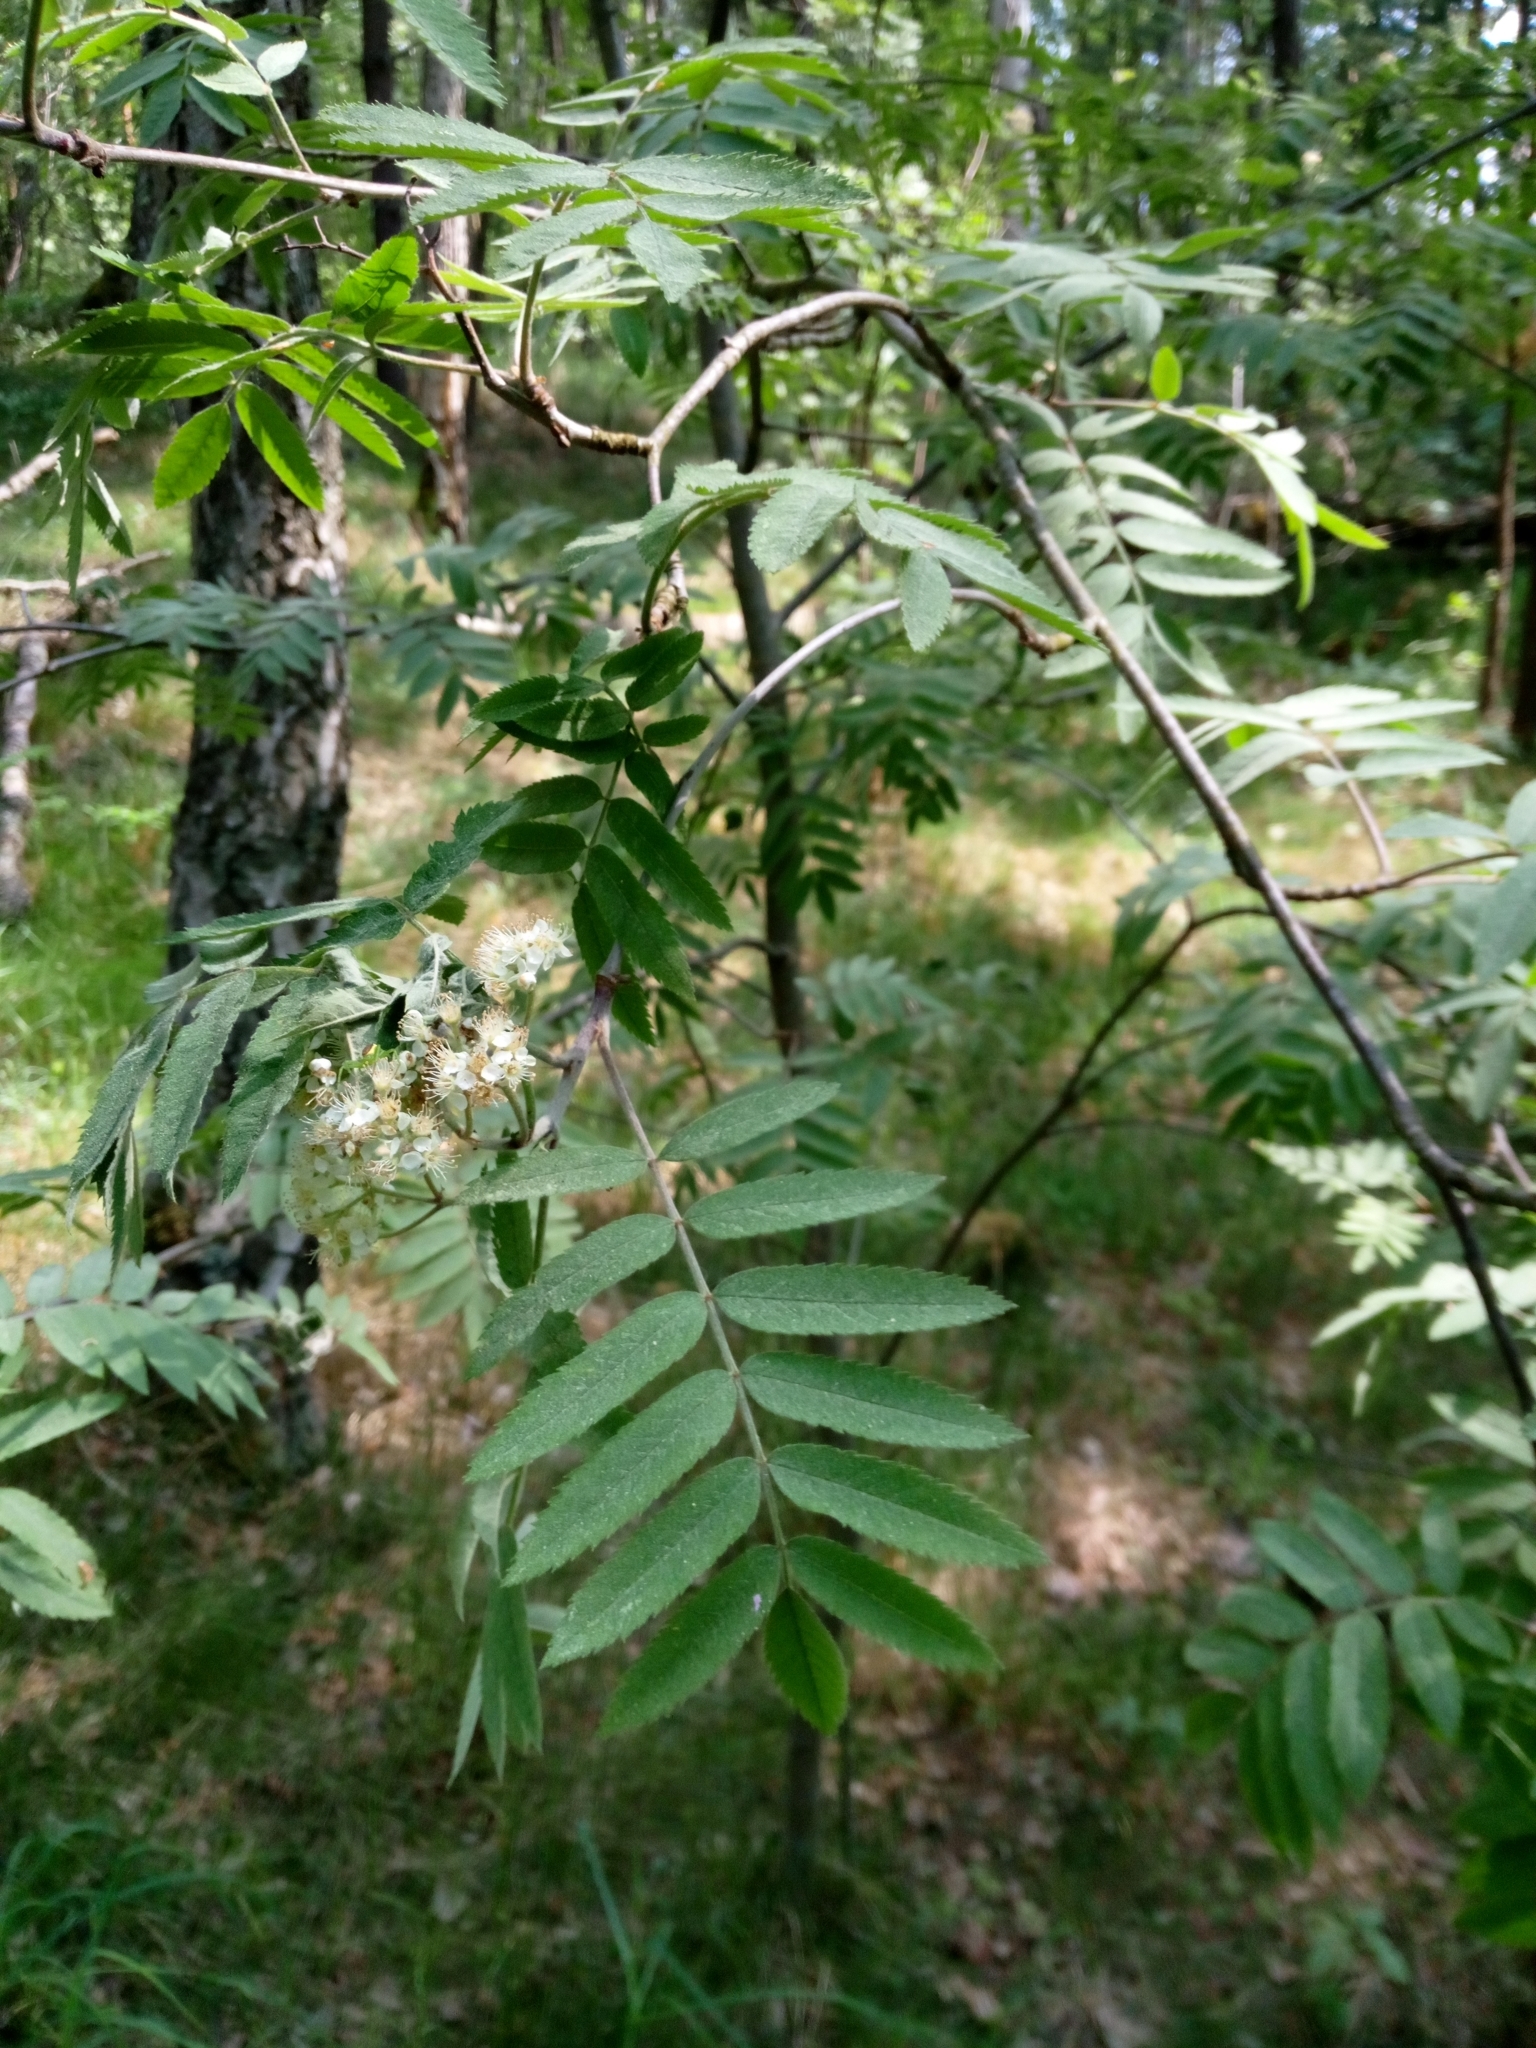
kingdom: Plantae
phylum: Tracheophyta
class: Magnoliopsida
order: Rosales
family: Rosaceae
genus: Sorbus
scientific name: Sorbus aucuparia
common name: Rowan
